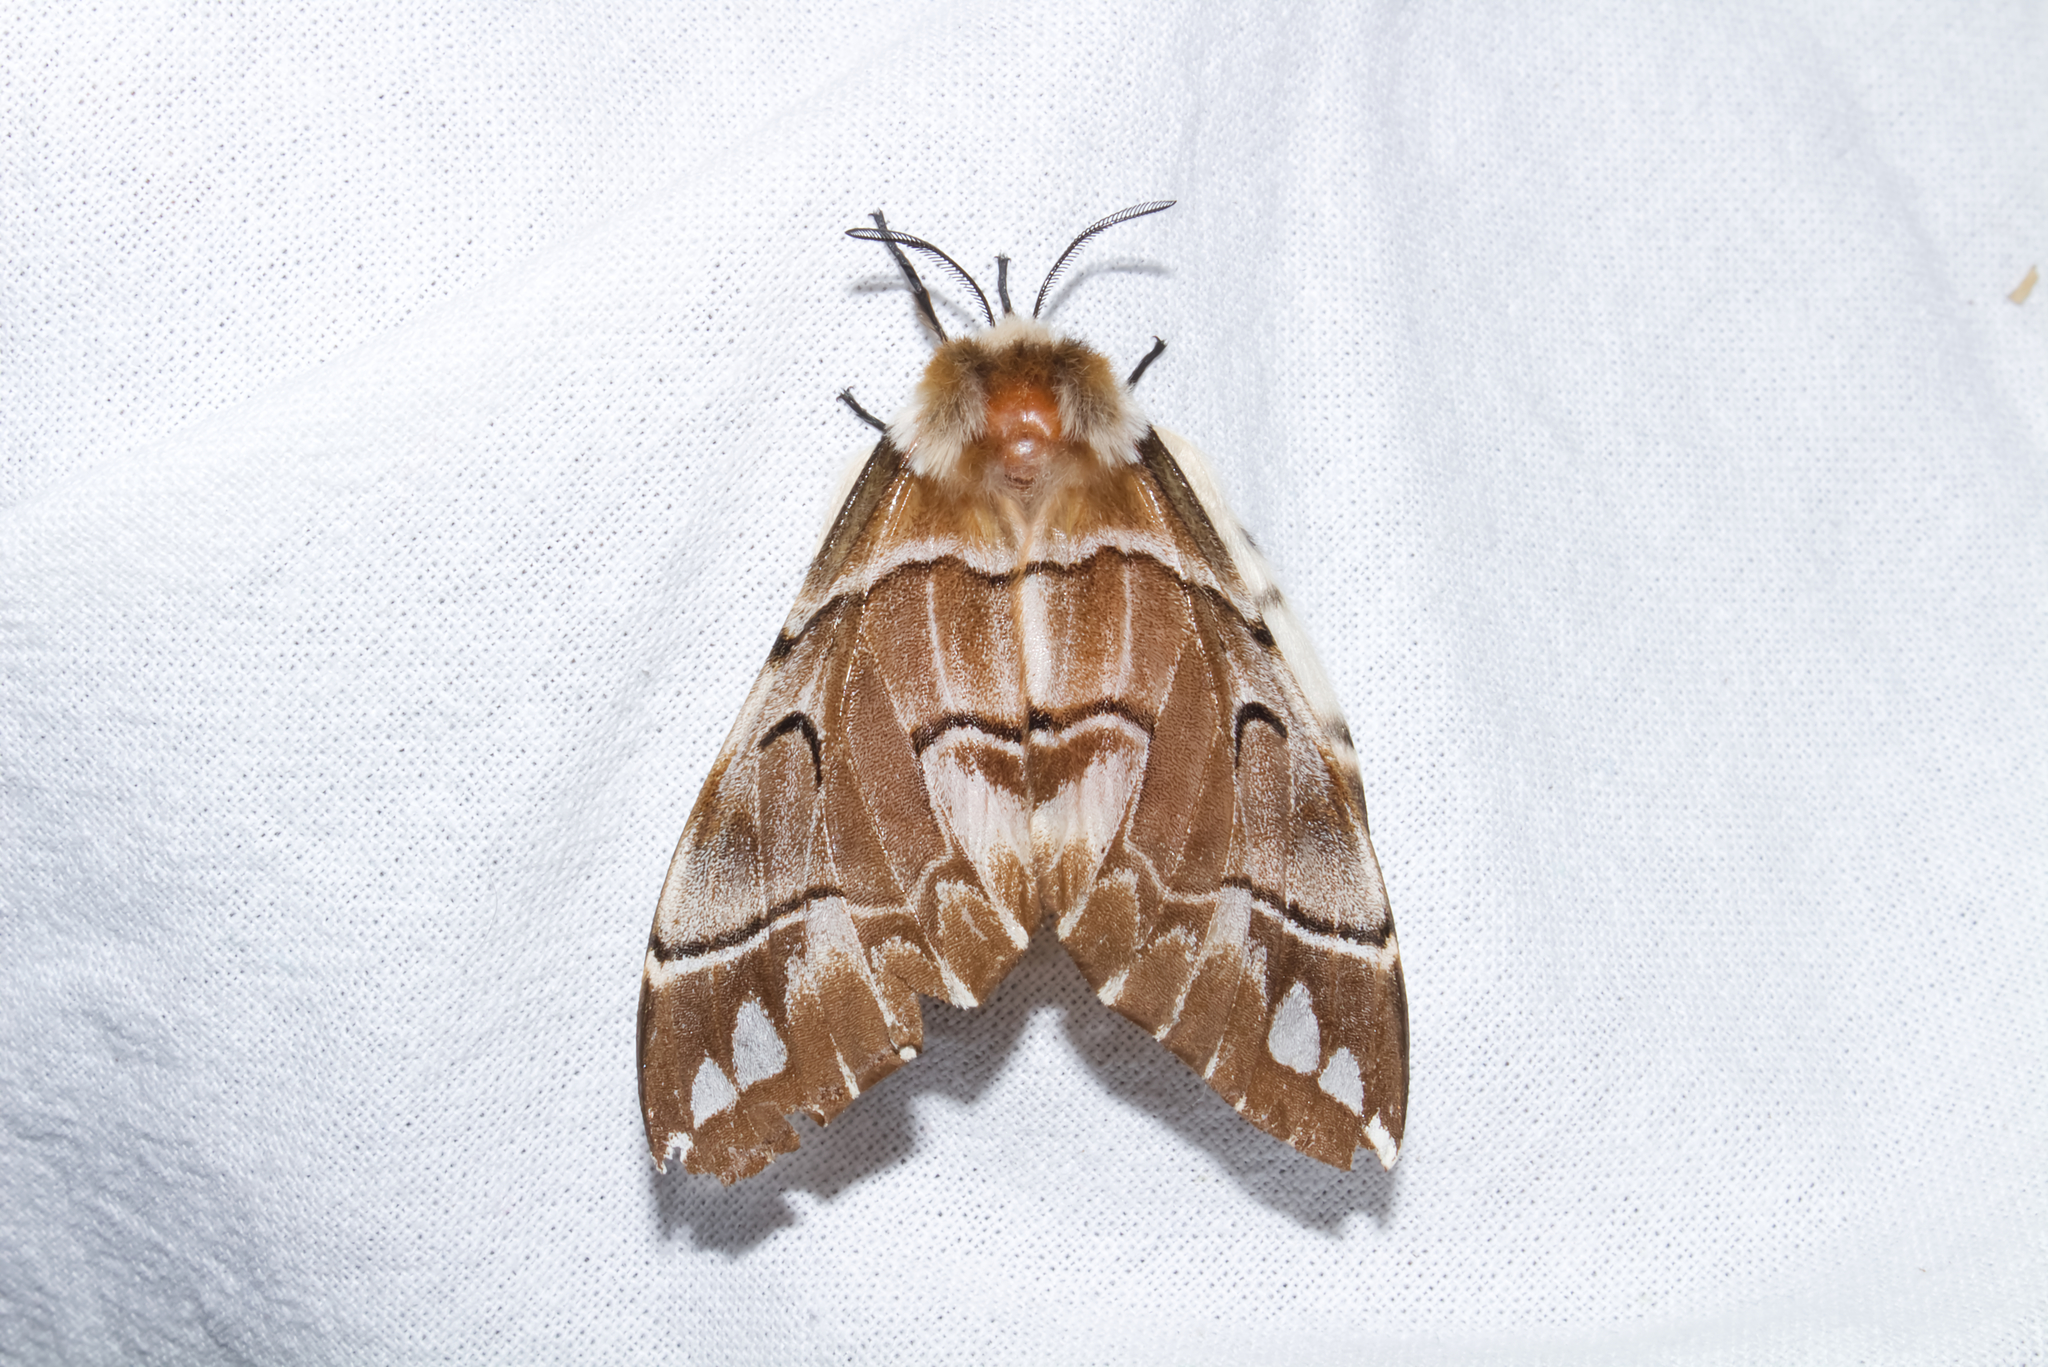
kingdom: Animalia
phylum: Arthropoda
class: Insecta
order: Lepidoptera
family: Endromidae
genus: Endromis
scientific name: Endromis versicolora
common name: Kentish glory
